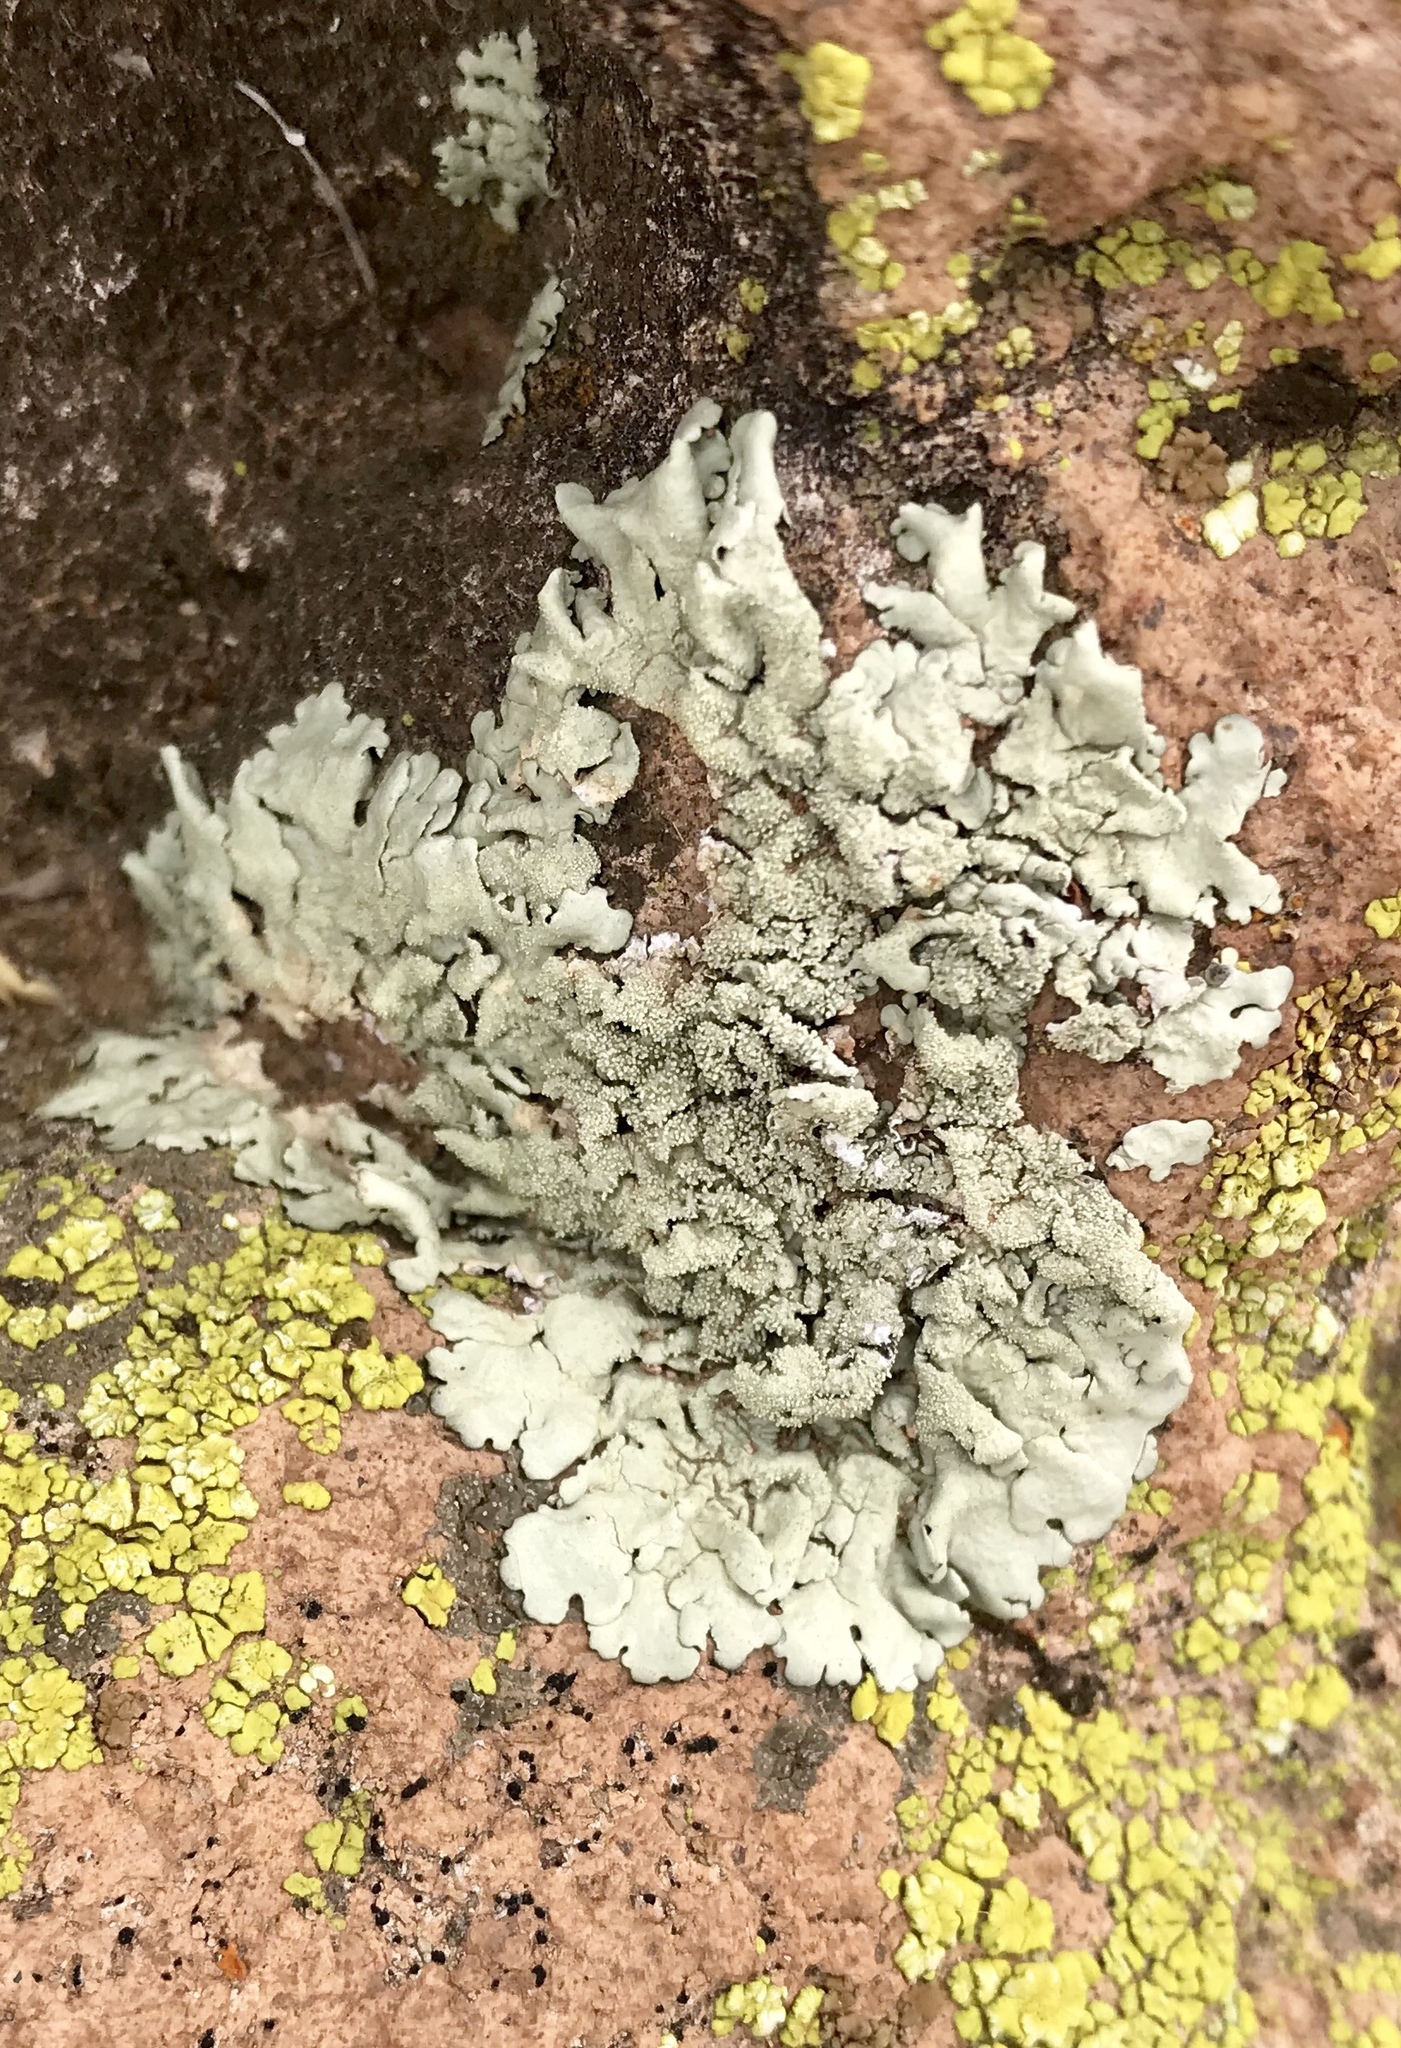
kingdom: Fungi
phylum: Ascomycota
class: Lecanoromycetes
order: Lecanorales
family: Parmeliaceae
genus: Flavoparmelia
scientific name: Flavoparmelia caperata
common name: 40-mile per hour lichen
